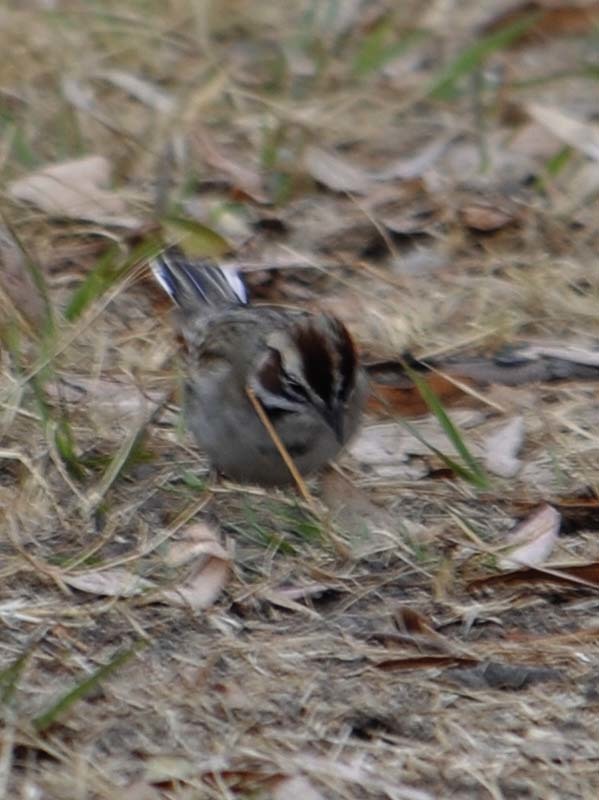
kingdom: Animalia
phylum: Chordata
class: Aves
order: Passeriformes
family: Passerellidae
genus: Chondestes
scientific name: Chondestes grammacus
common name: Lark sparrow
